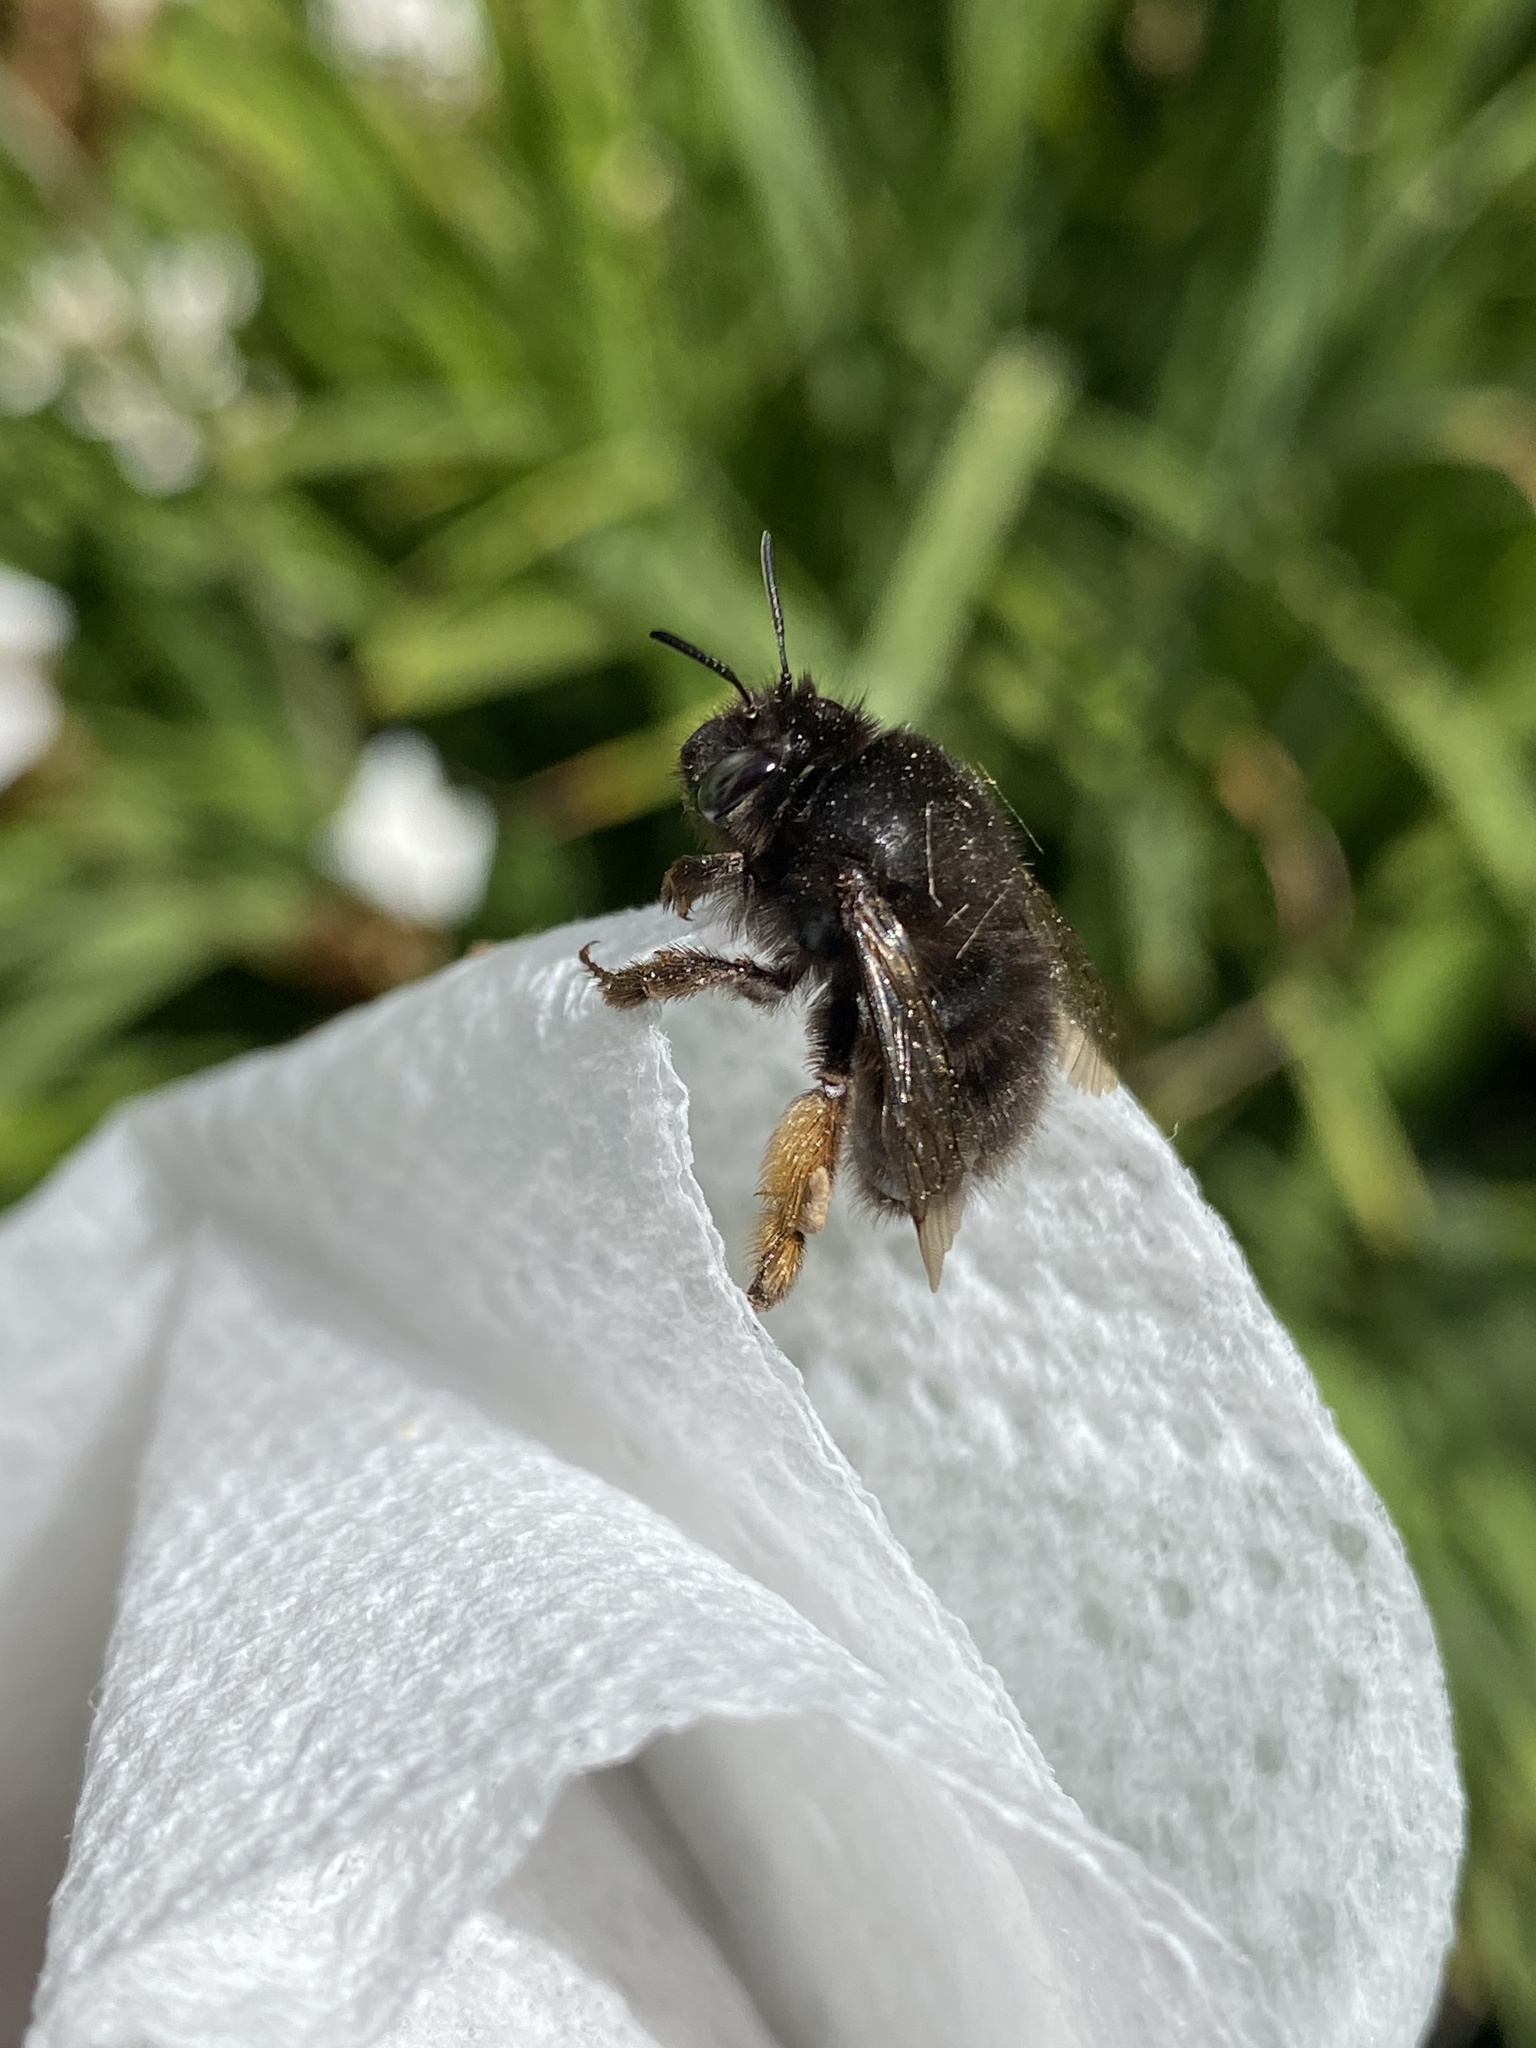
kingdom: Animalia
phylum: Arthropoda
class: Insecta
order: Hymenoptera
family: Apidae
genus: Anthophora
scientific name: Anthophora plumipes
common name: Hairy-footed flower bee
